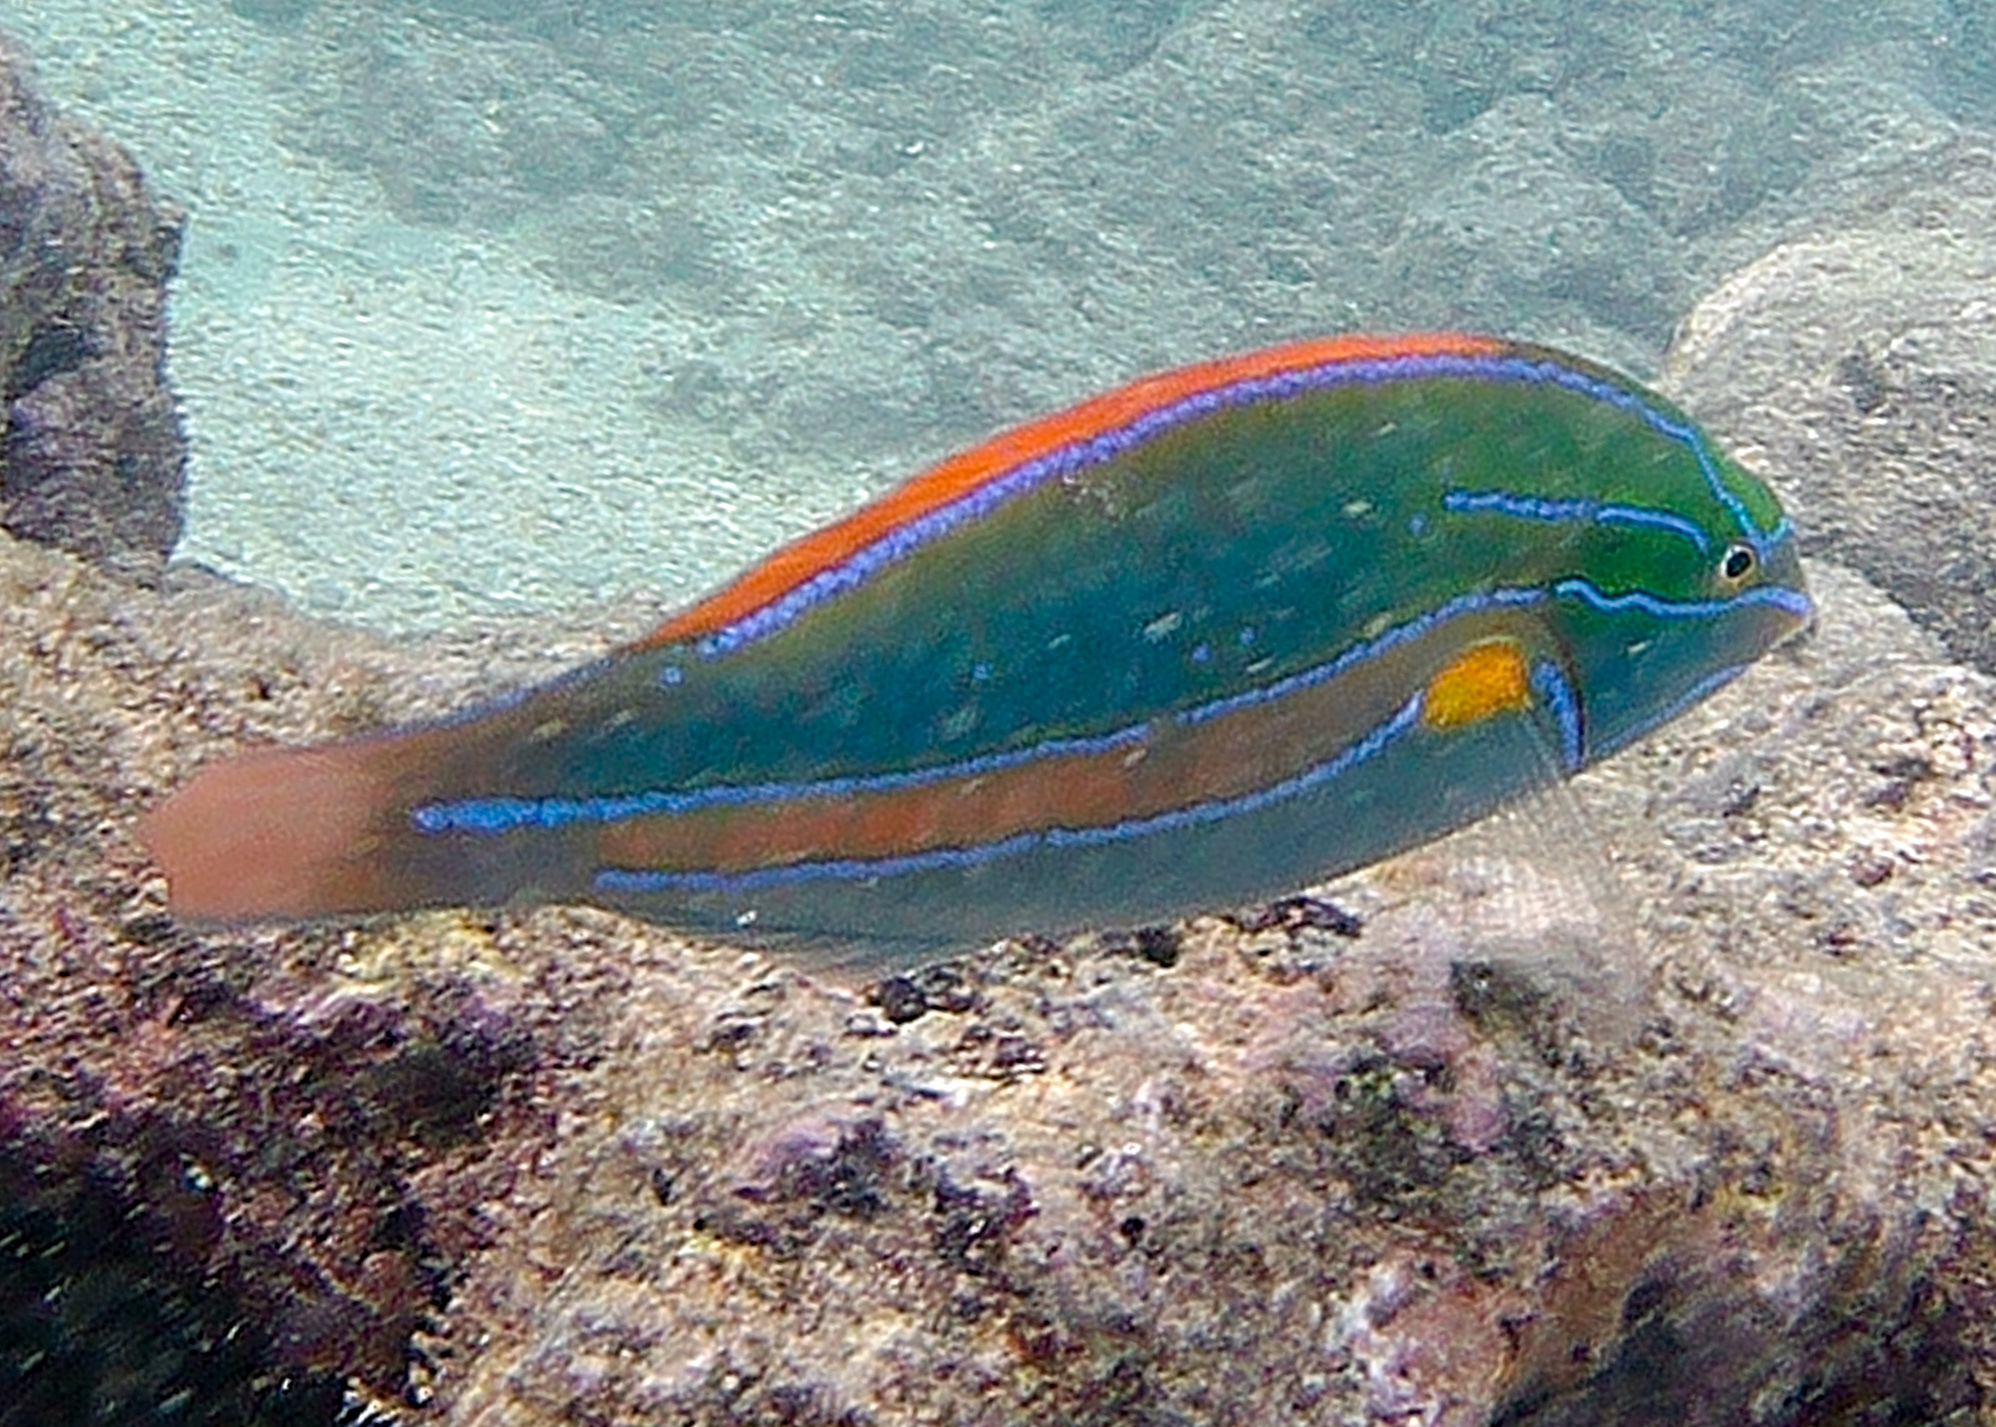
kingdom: Animalia
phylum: Chordata
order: Perciformes
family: Labridae
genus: Stethojulis
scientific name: Stethojulis balteata
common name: Belted wrasse
